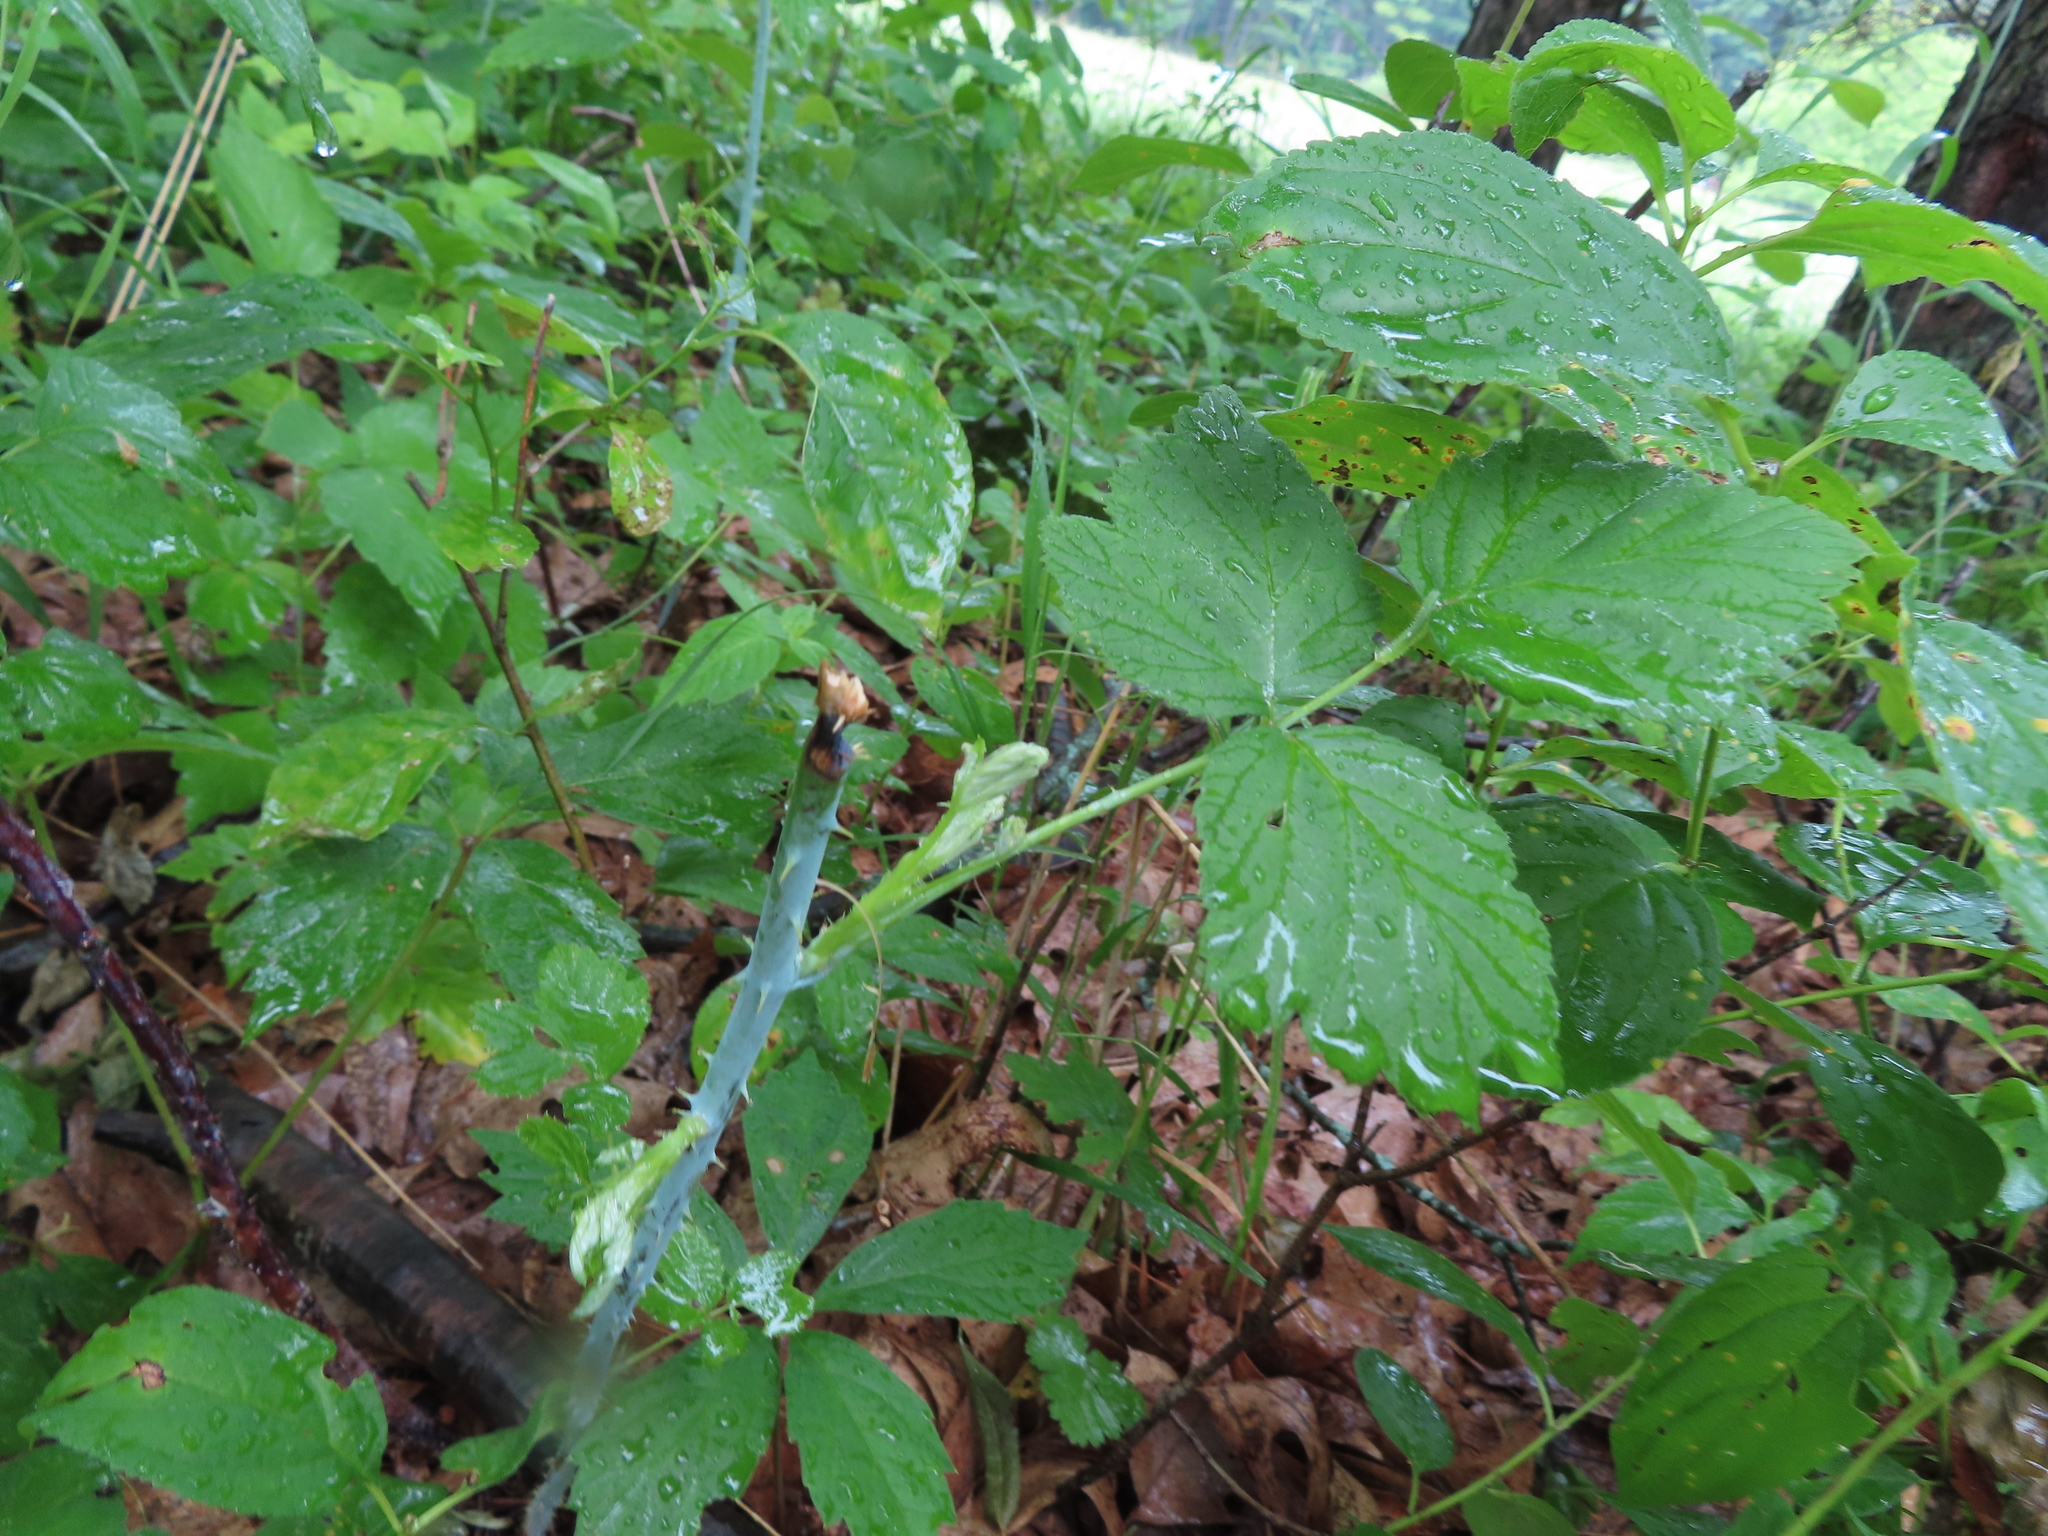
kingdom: Plantae
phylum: Tracheophyta
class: Magnoliopsida
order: Rosales
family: Rosaceae
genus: Rubus
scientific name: Rubus occidentalis
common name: Black raspberry
